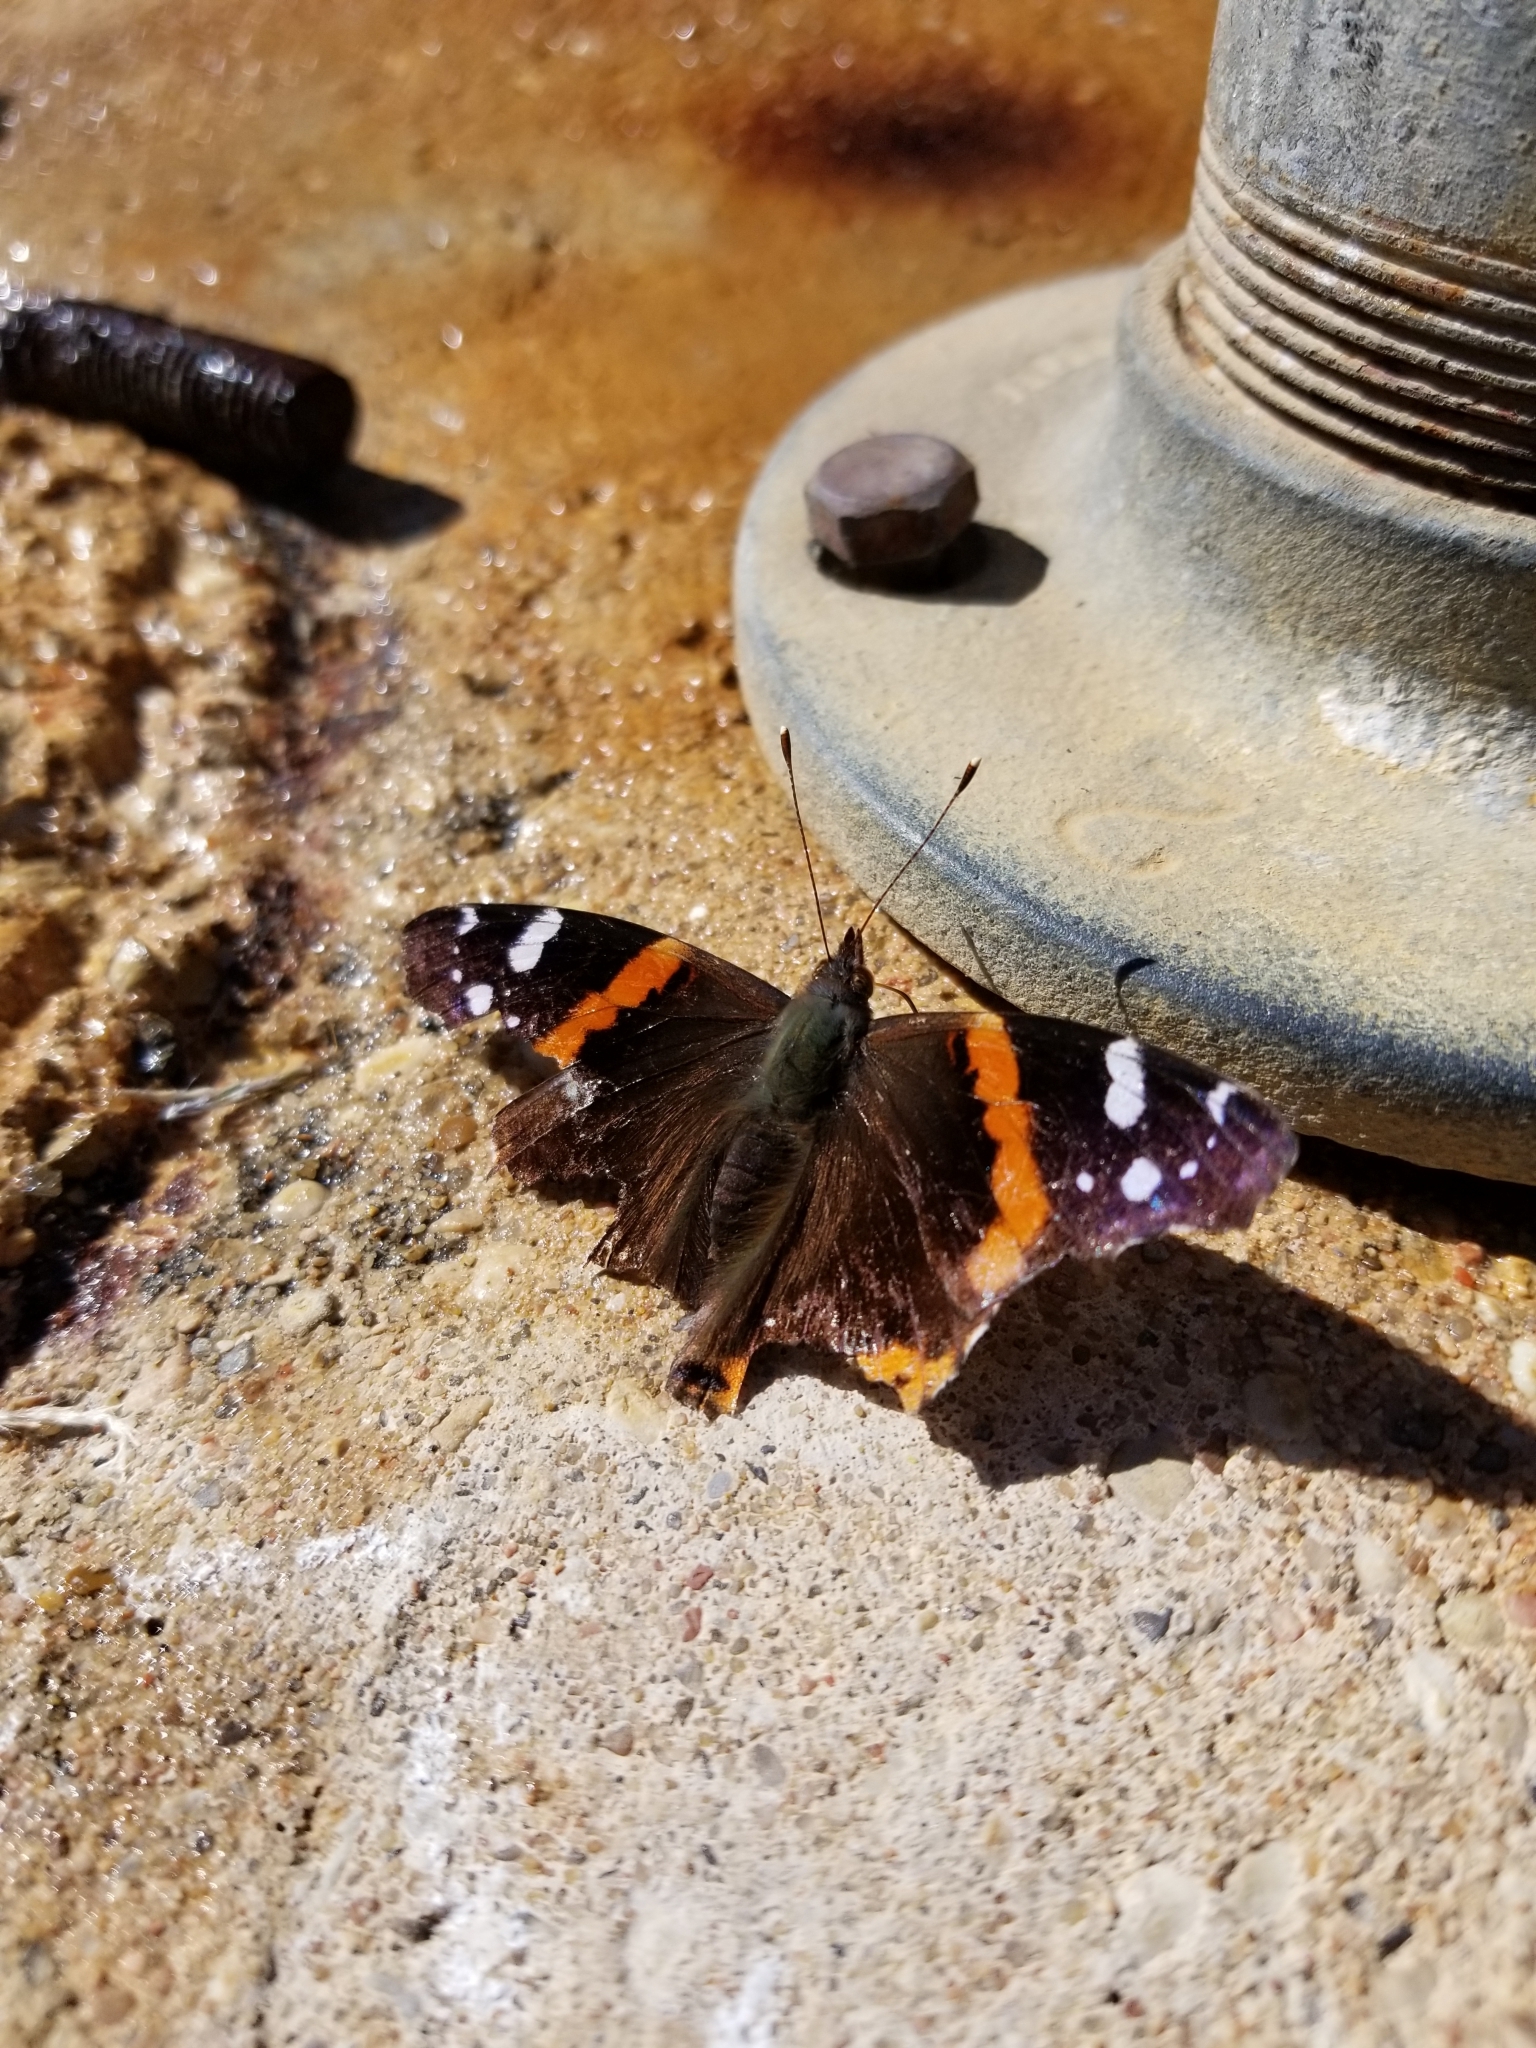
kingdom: Animalia
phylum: Arthropoda
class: Insecta
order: Lepidoptera
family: Nymphalidae
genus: Vanessa
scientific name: Vanessa atalanta
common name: Red admiral
